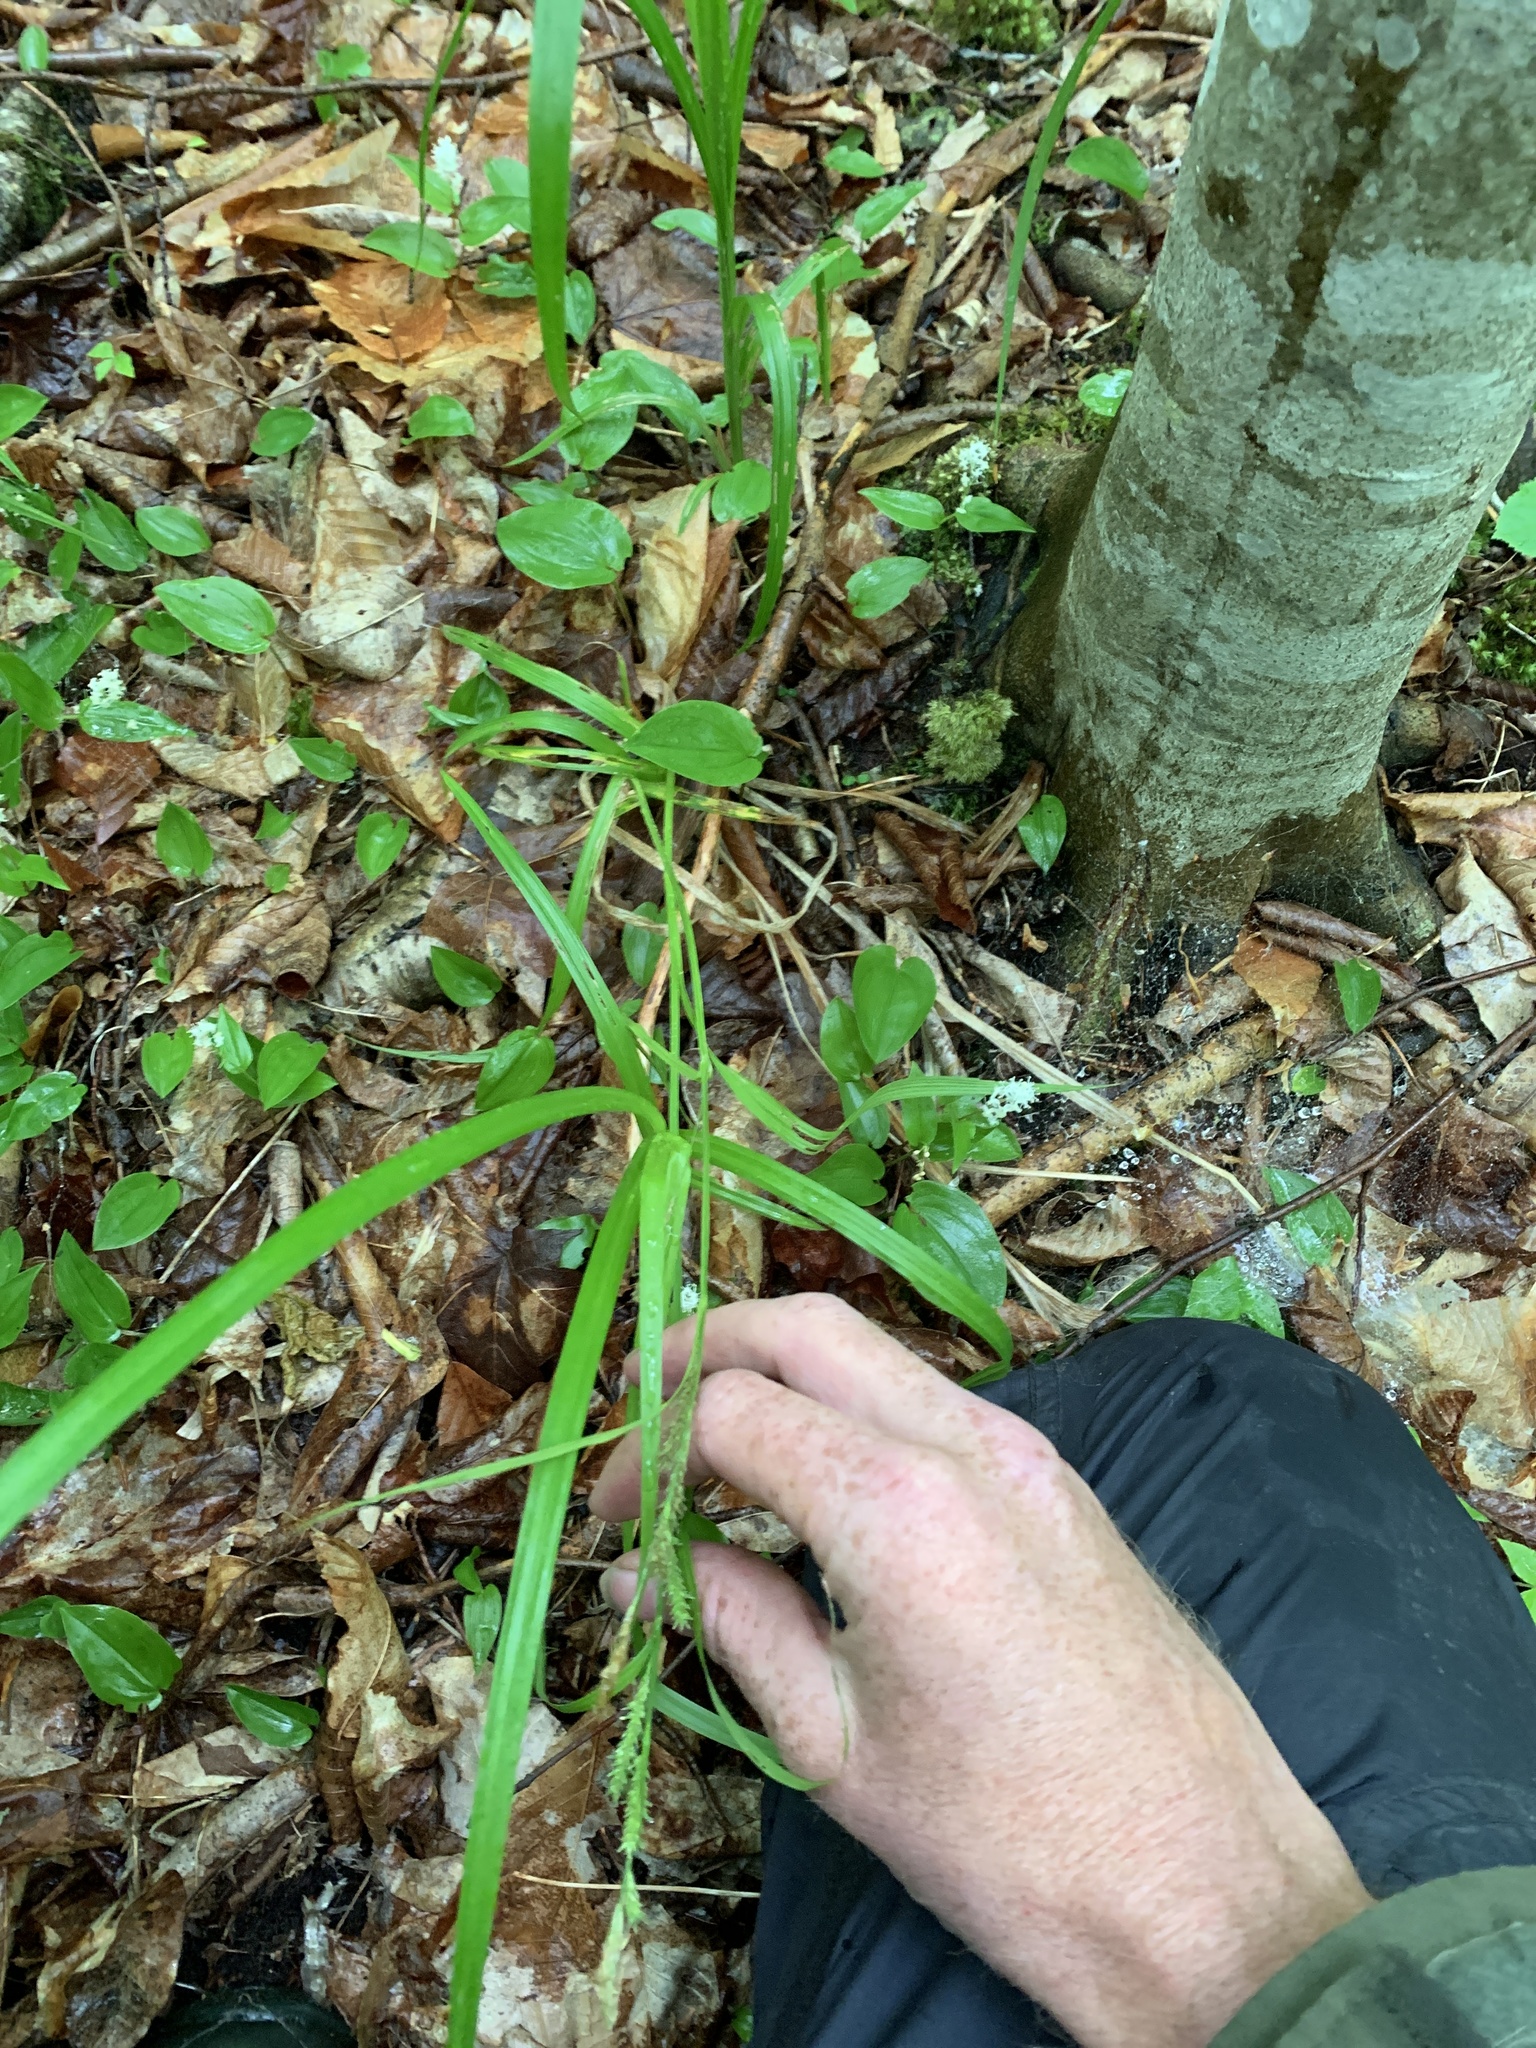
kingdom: Plantae
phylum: Tracheophyta
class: Liliopsida
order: Poales
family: Cyperaceae
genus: Carex
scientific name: Carex scabrata
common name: Eastern rough sedge
